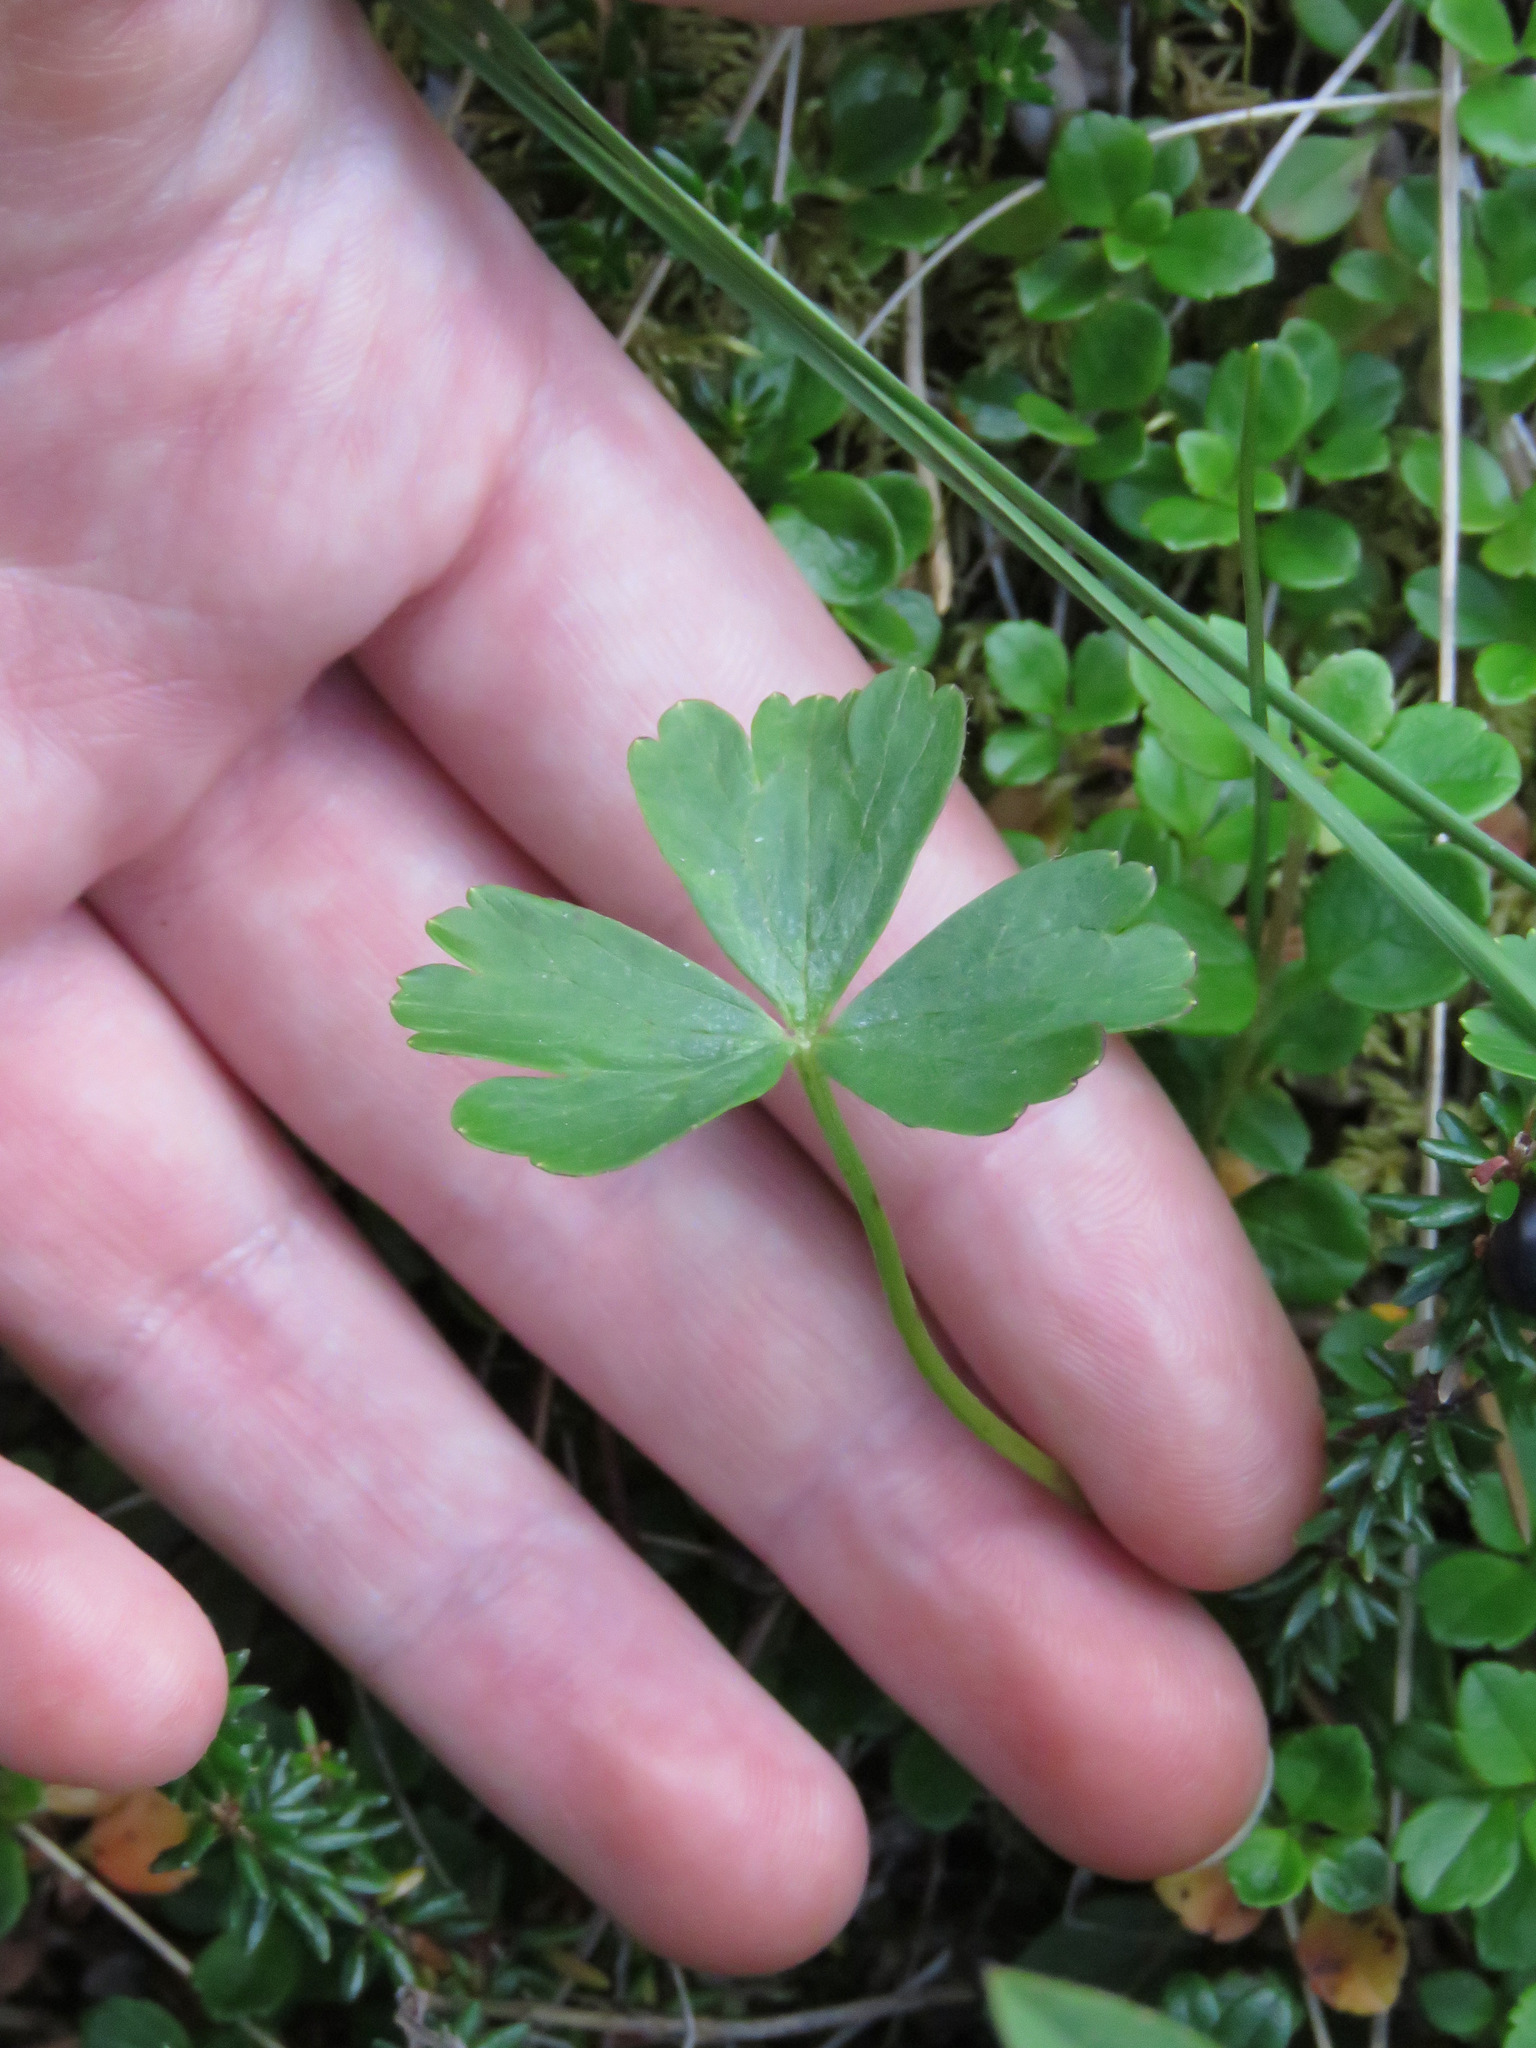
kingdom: Plantae
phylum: Tracheophyta
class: Magnoliopsida
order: Ranunculales
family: Ranunculaceae
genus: Anemone
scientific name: Anemone parviflora
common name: Northern anemone
